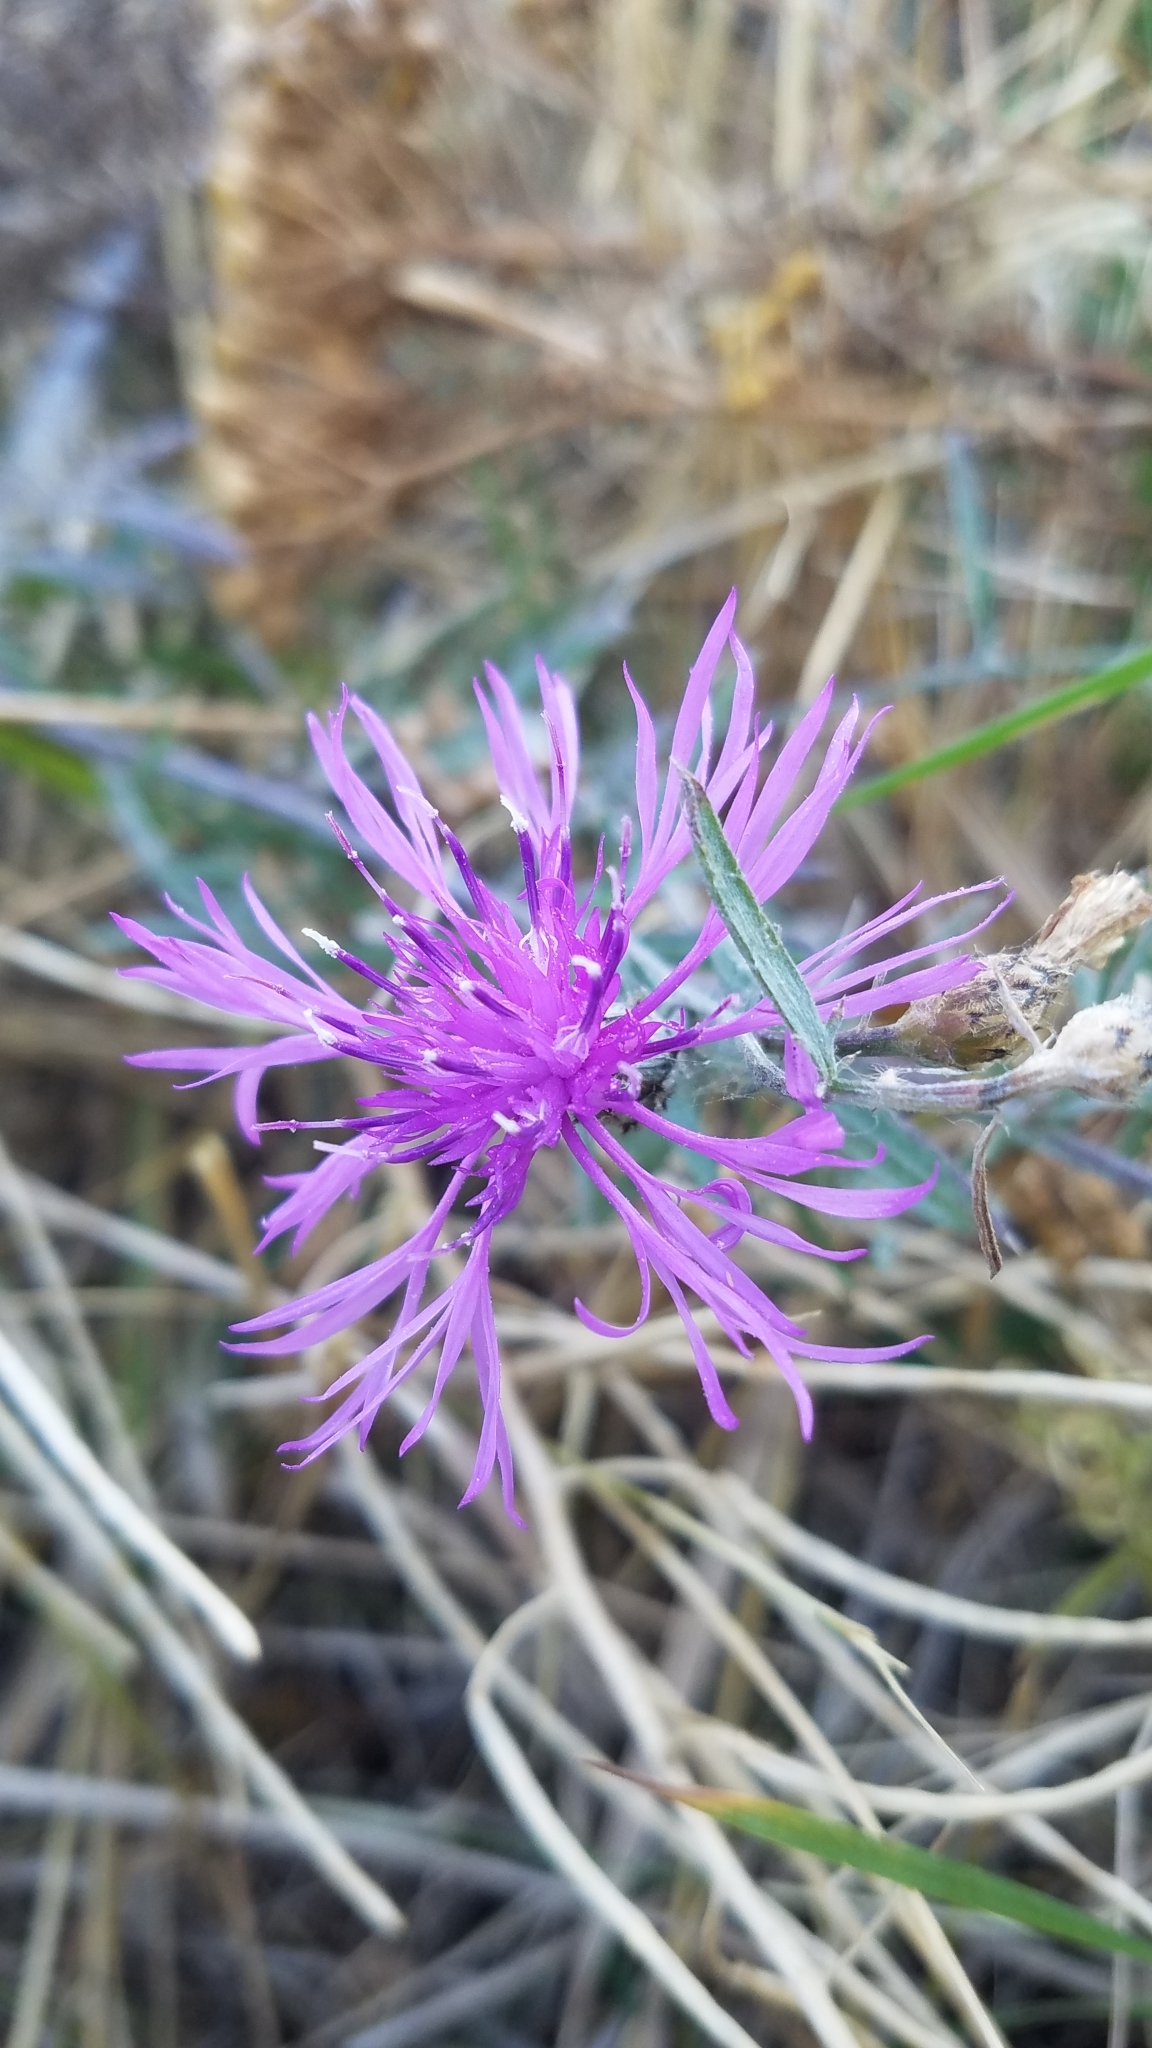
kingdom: Plantae
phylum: Tracheophyta
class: Magnoliopsida
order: Asterales
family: Asteraceae
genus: Centaurea
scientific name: Centaurea stoebe
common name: Spotted knapweed
